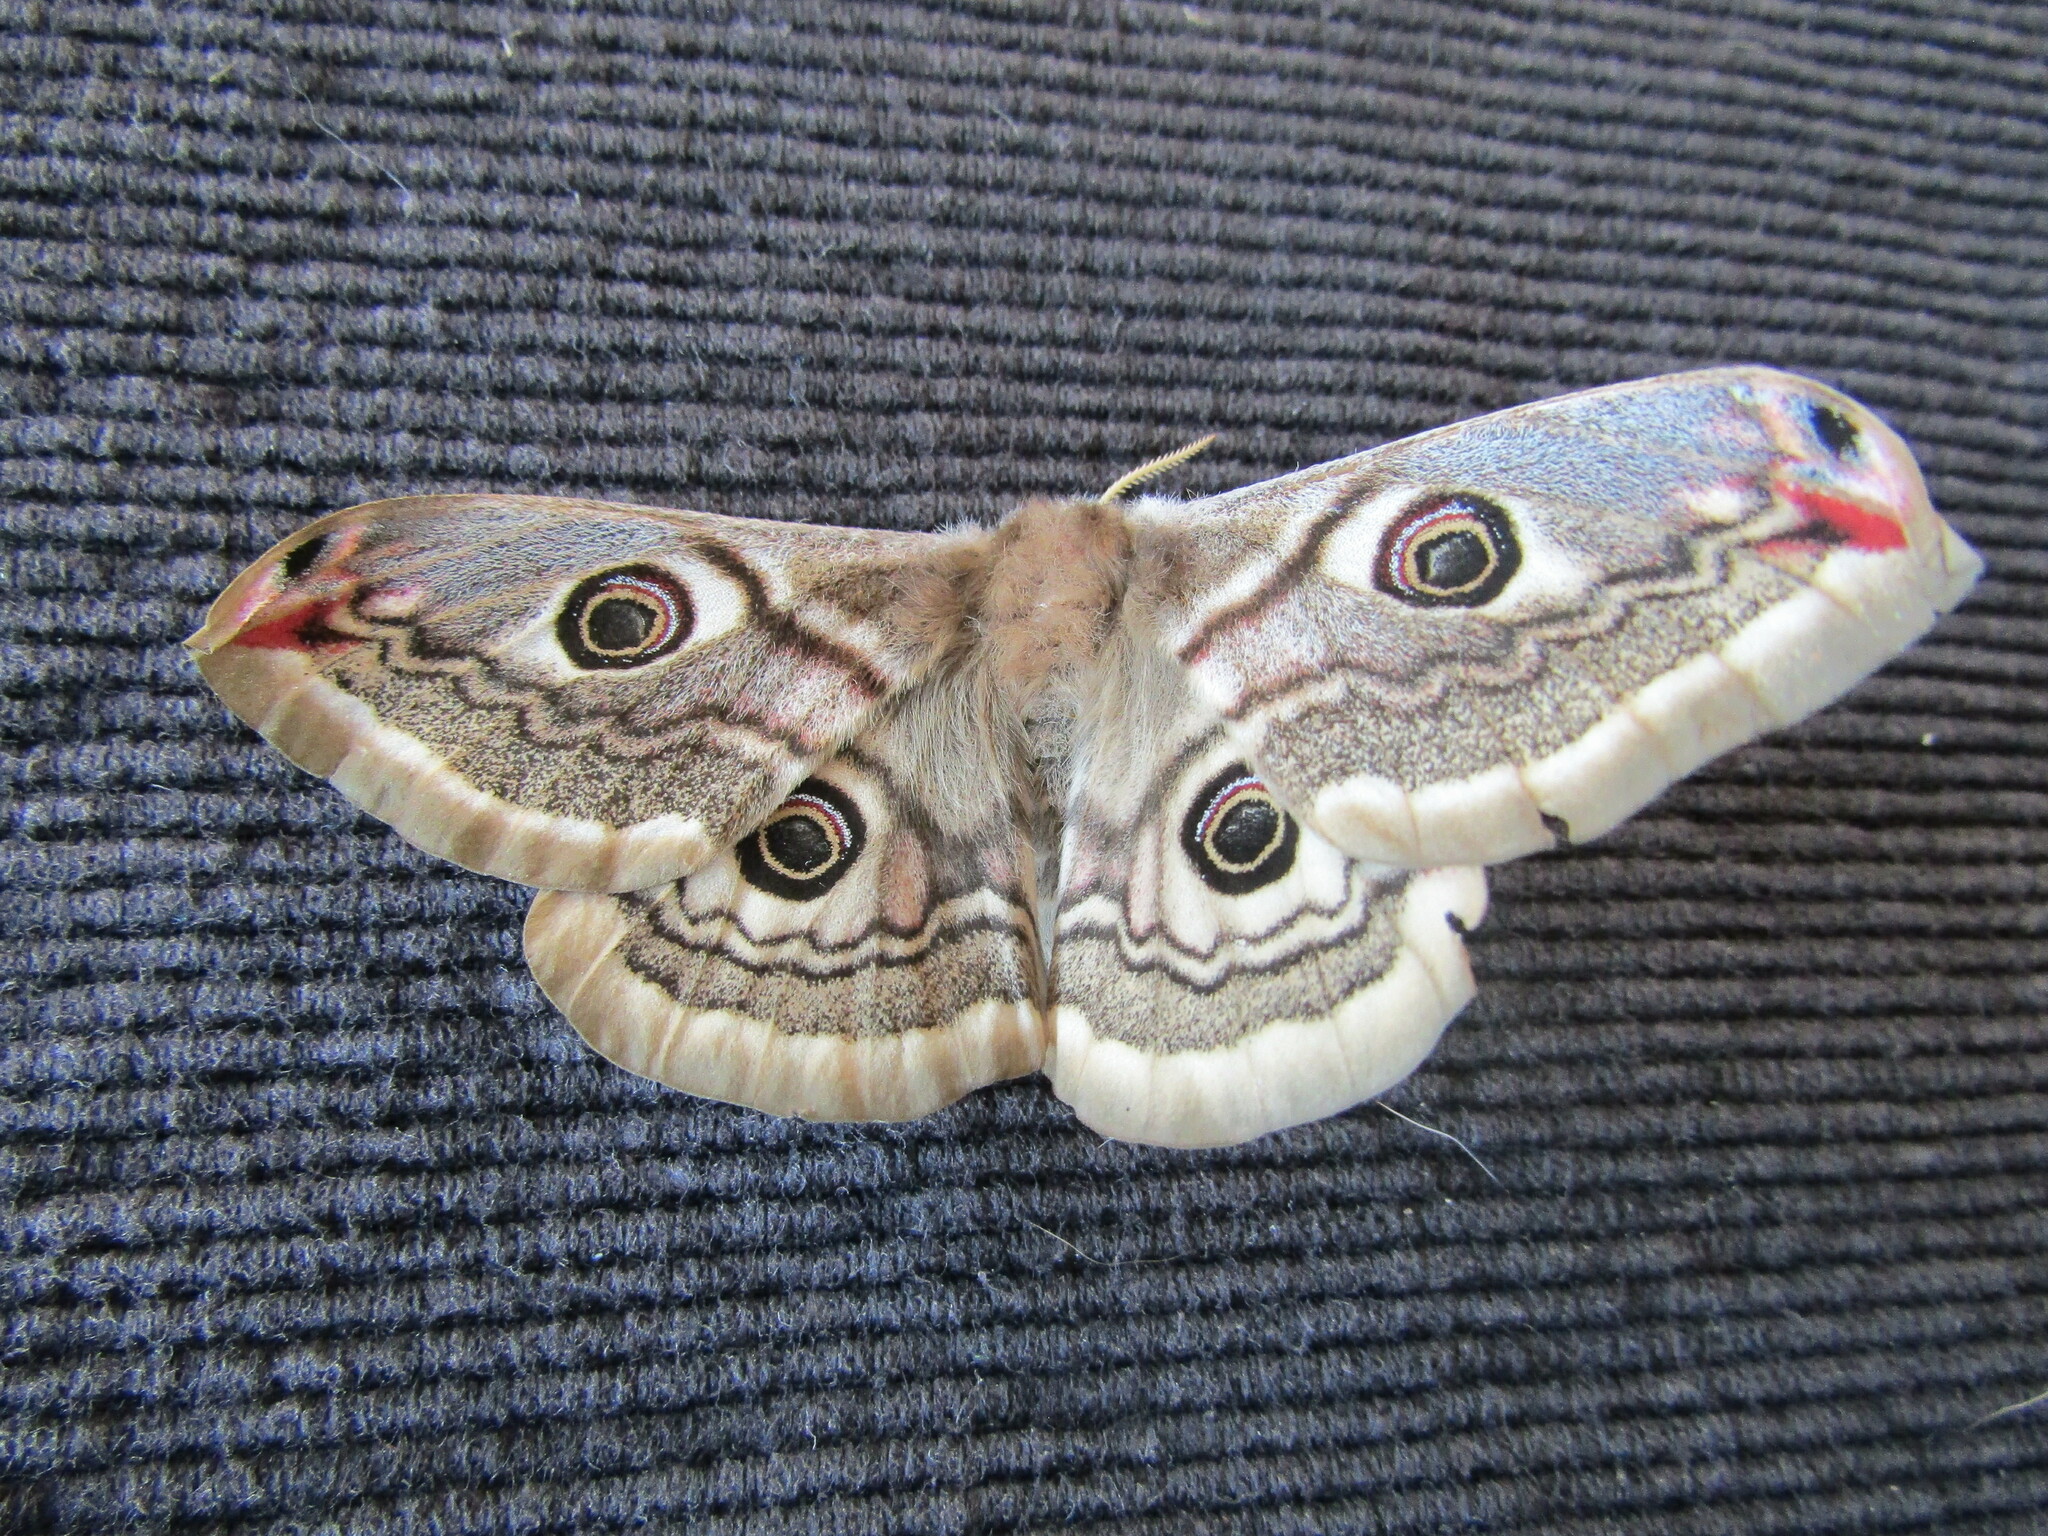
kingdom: Animalia
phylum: Arthropoda
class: Insecta
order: Lepidoptera
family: Saturniidae
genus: Saturnia
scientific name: Saturnia pavoniella
